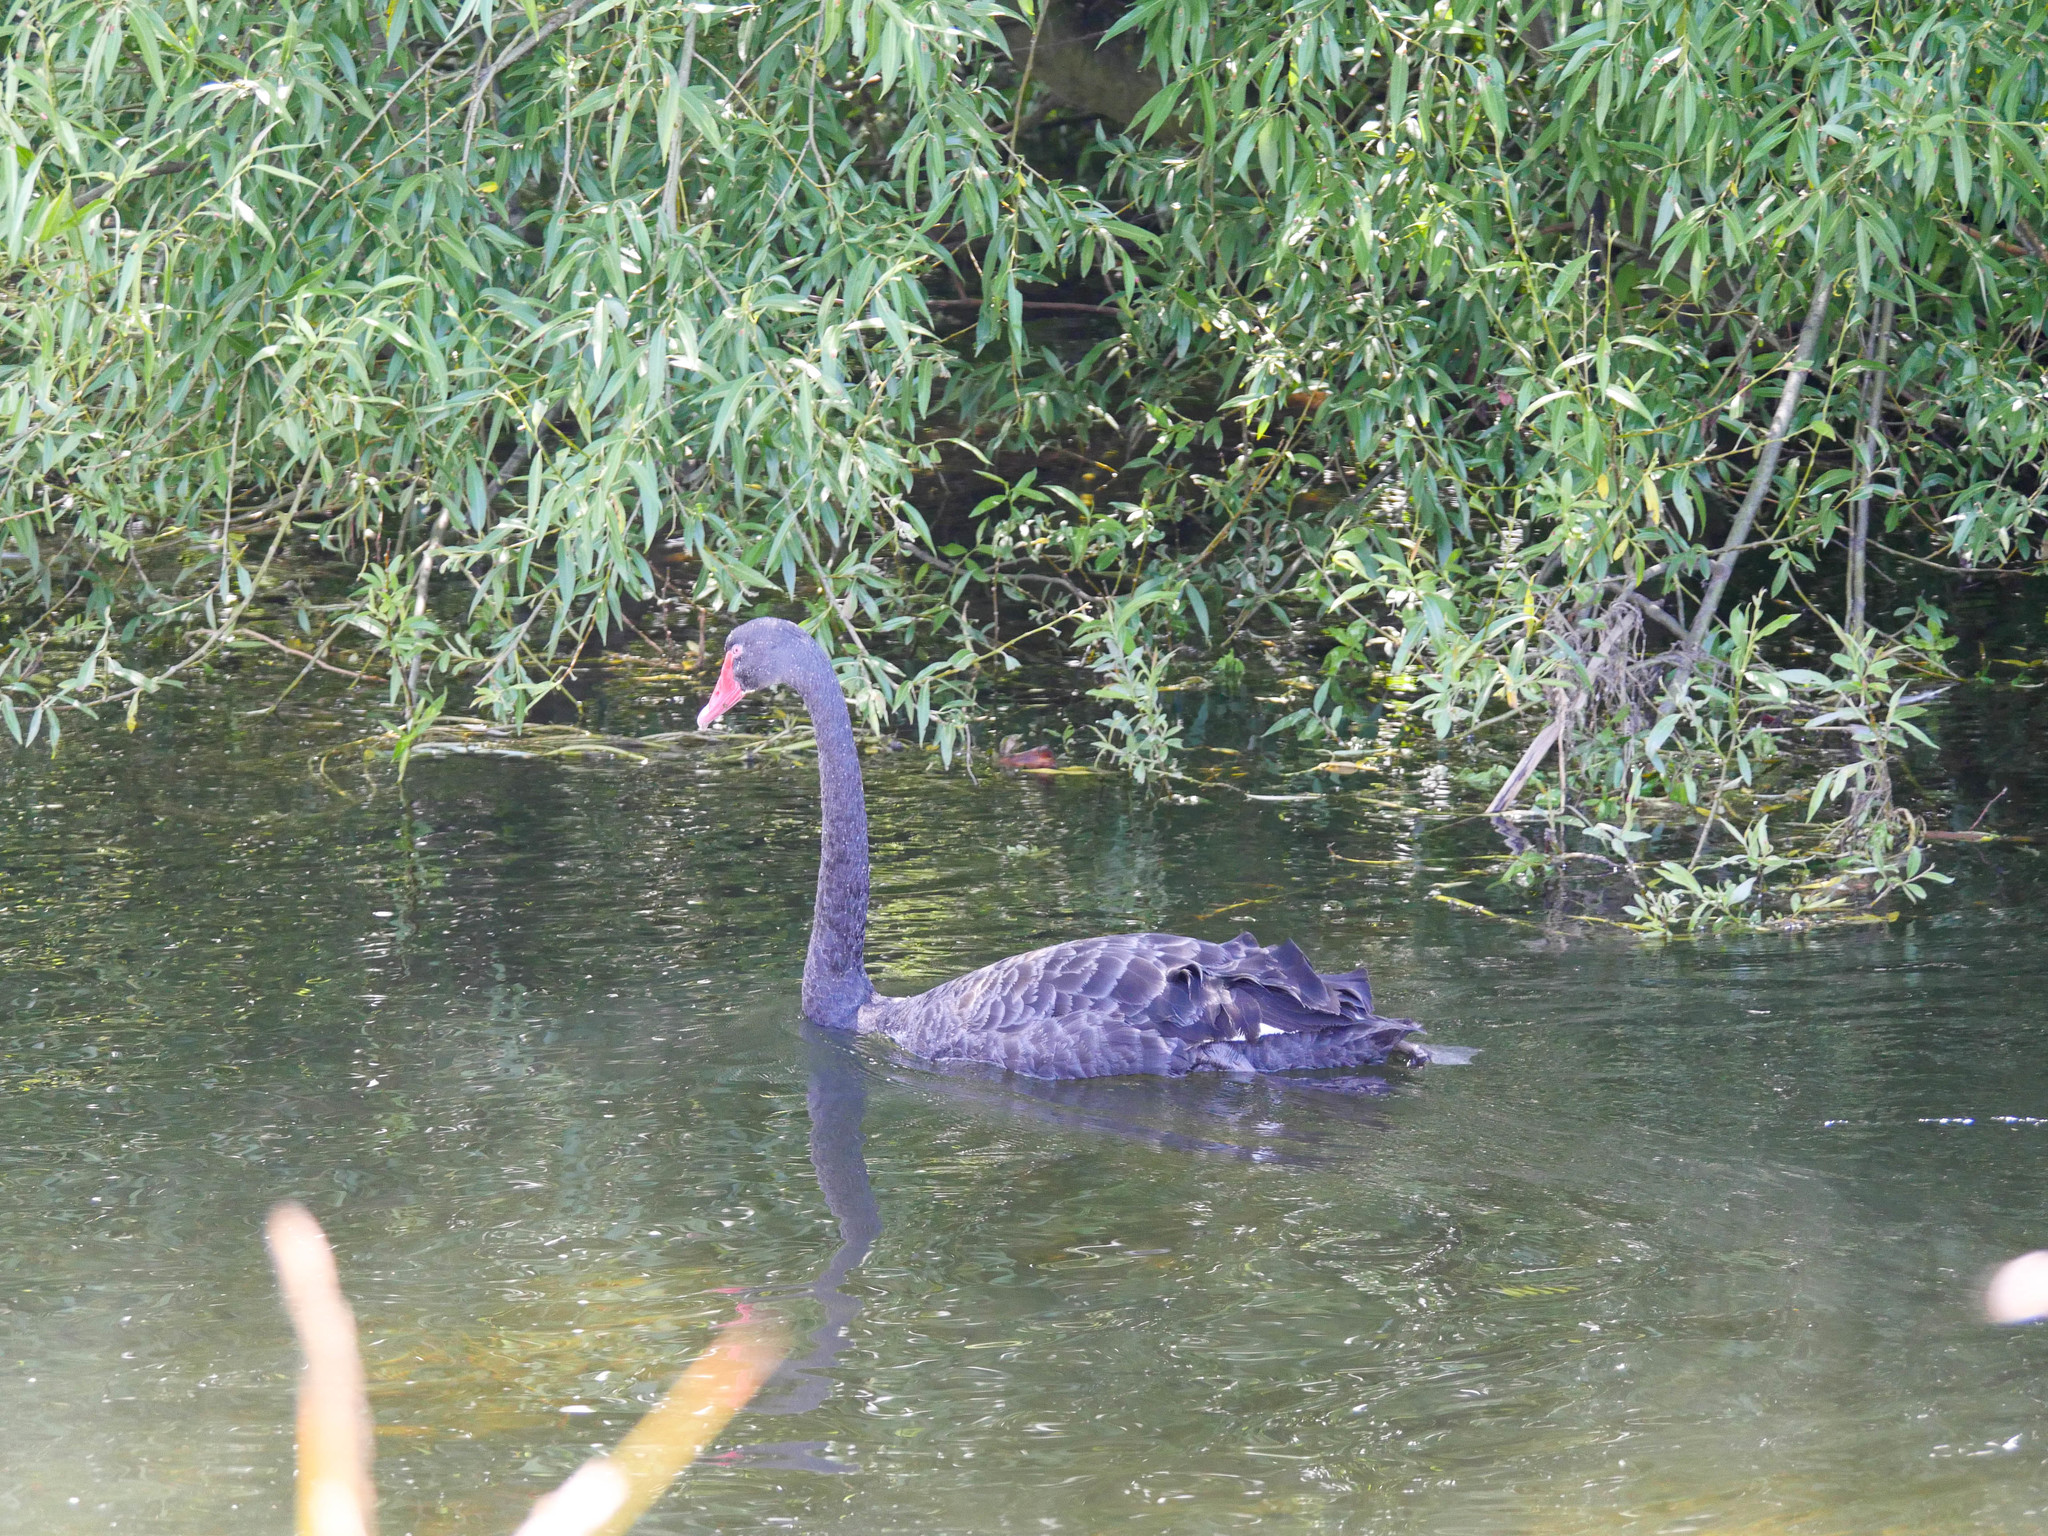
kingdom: Animalia
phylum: Chordata
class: Aves
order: Anseriformes
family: Anatidae
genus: Cygnus
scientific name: Cygnus atratus
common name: Black swan
